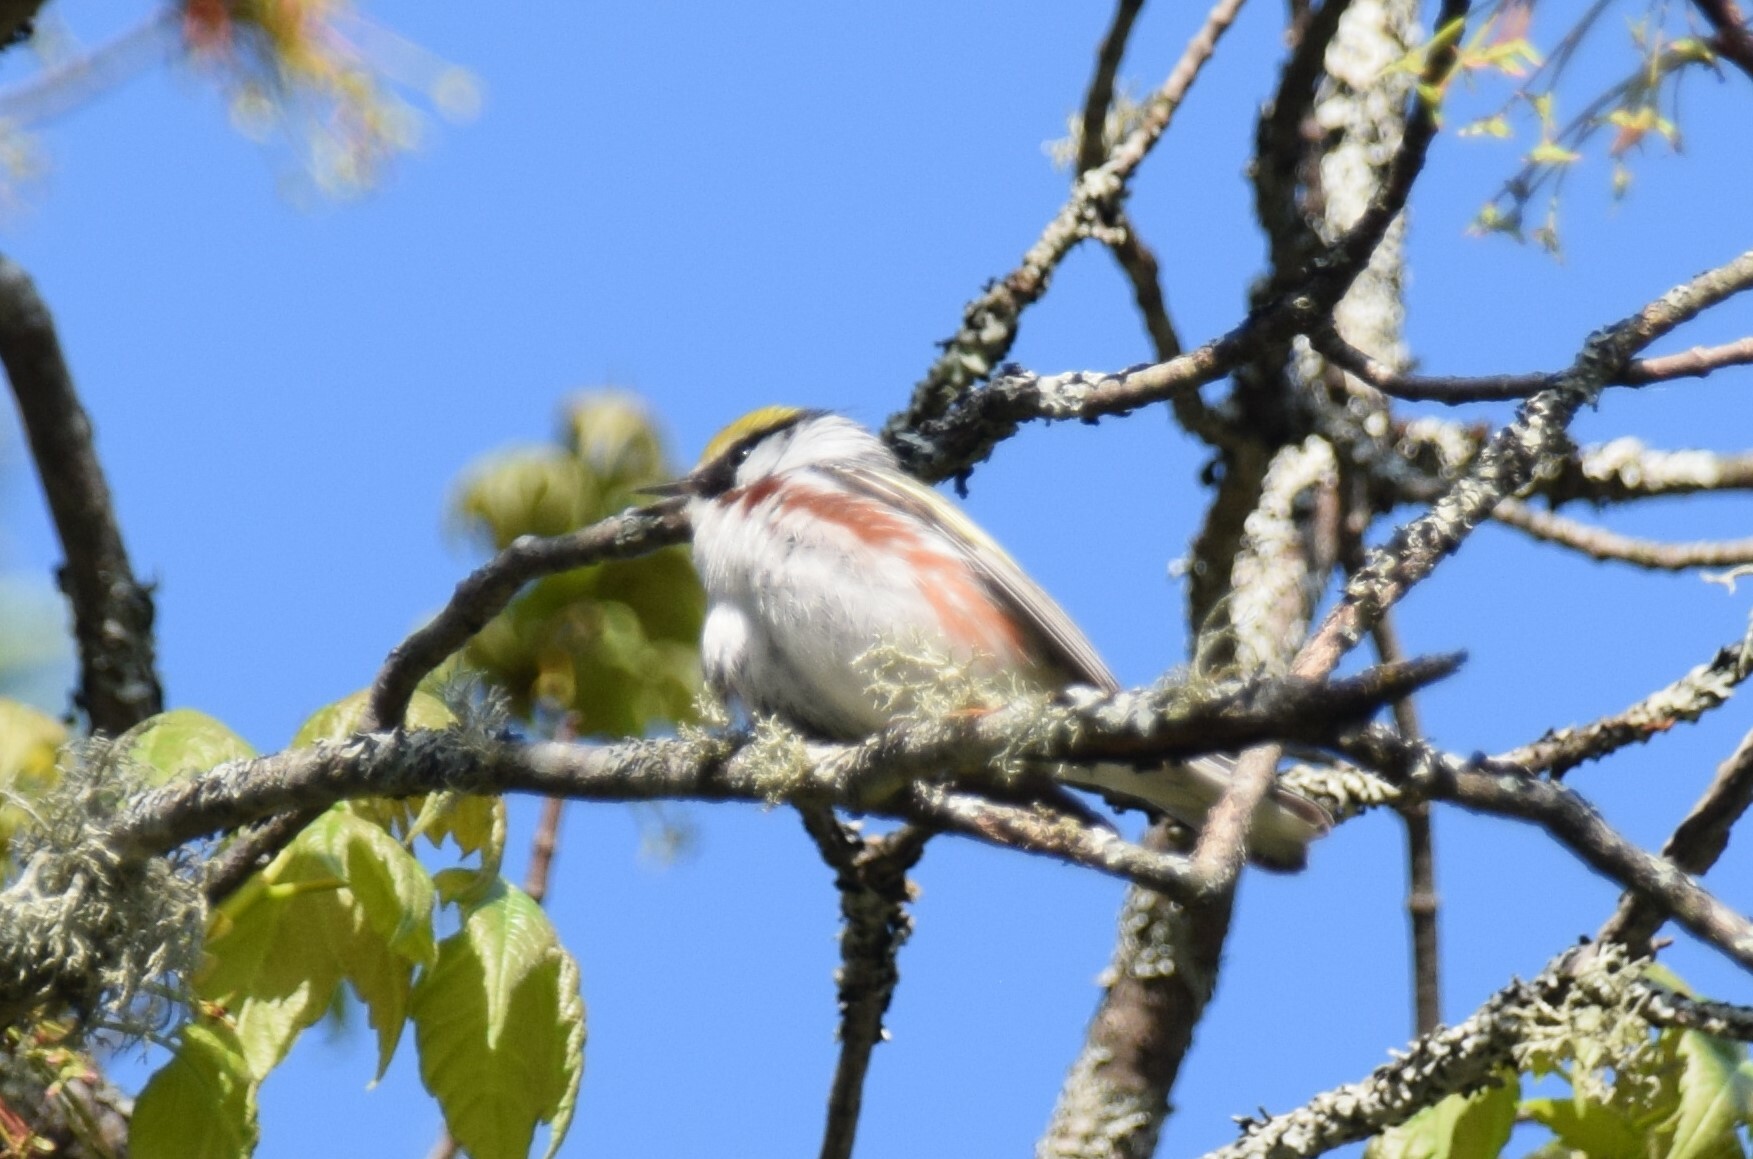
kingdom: Animalia
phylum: Chordata
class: Aves
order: Passeriformes
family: Parulidae
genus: Setophaga
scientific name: Setophaga pensylvanica
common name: Chestnut-sided warbler
